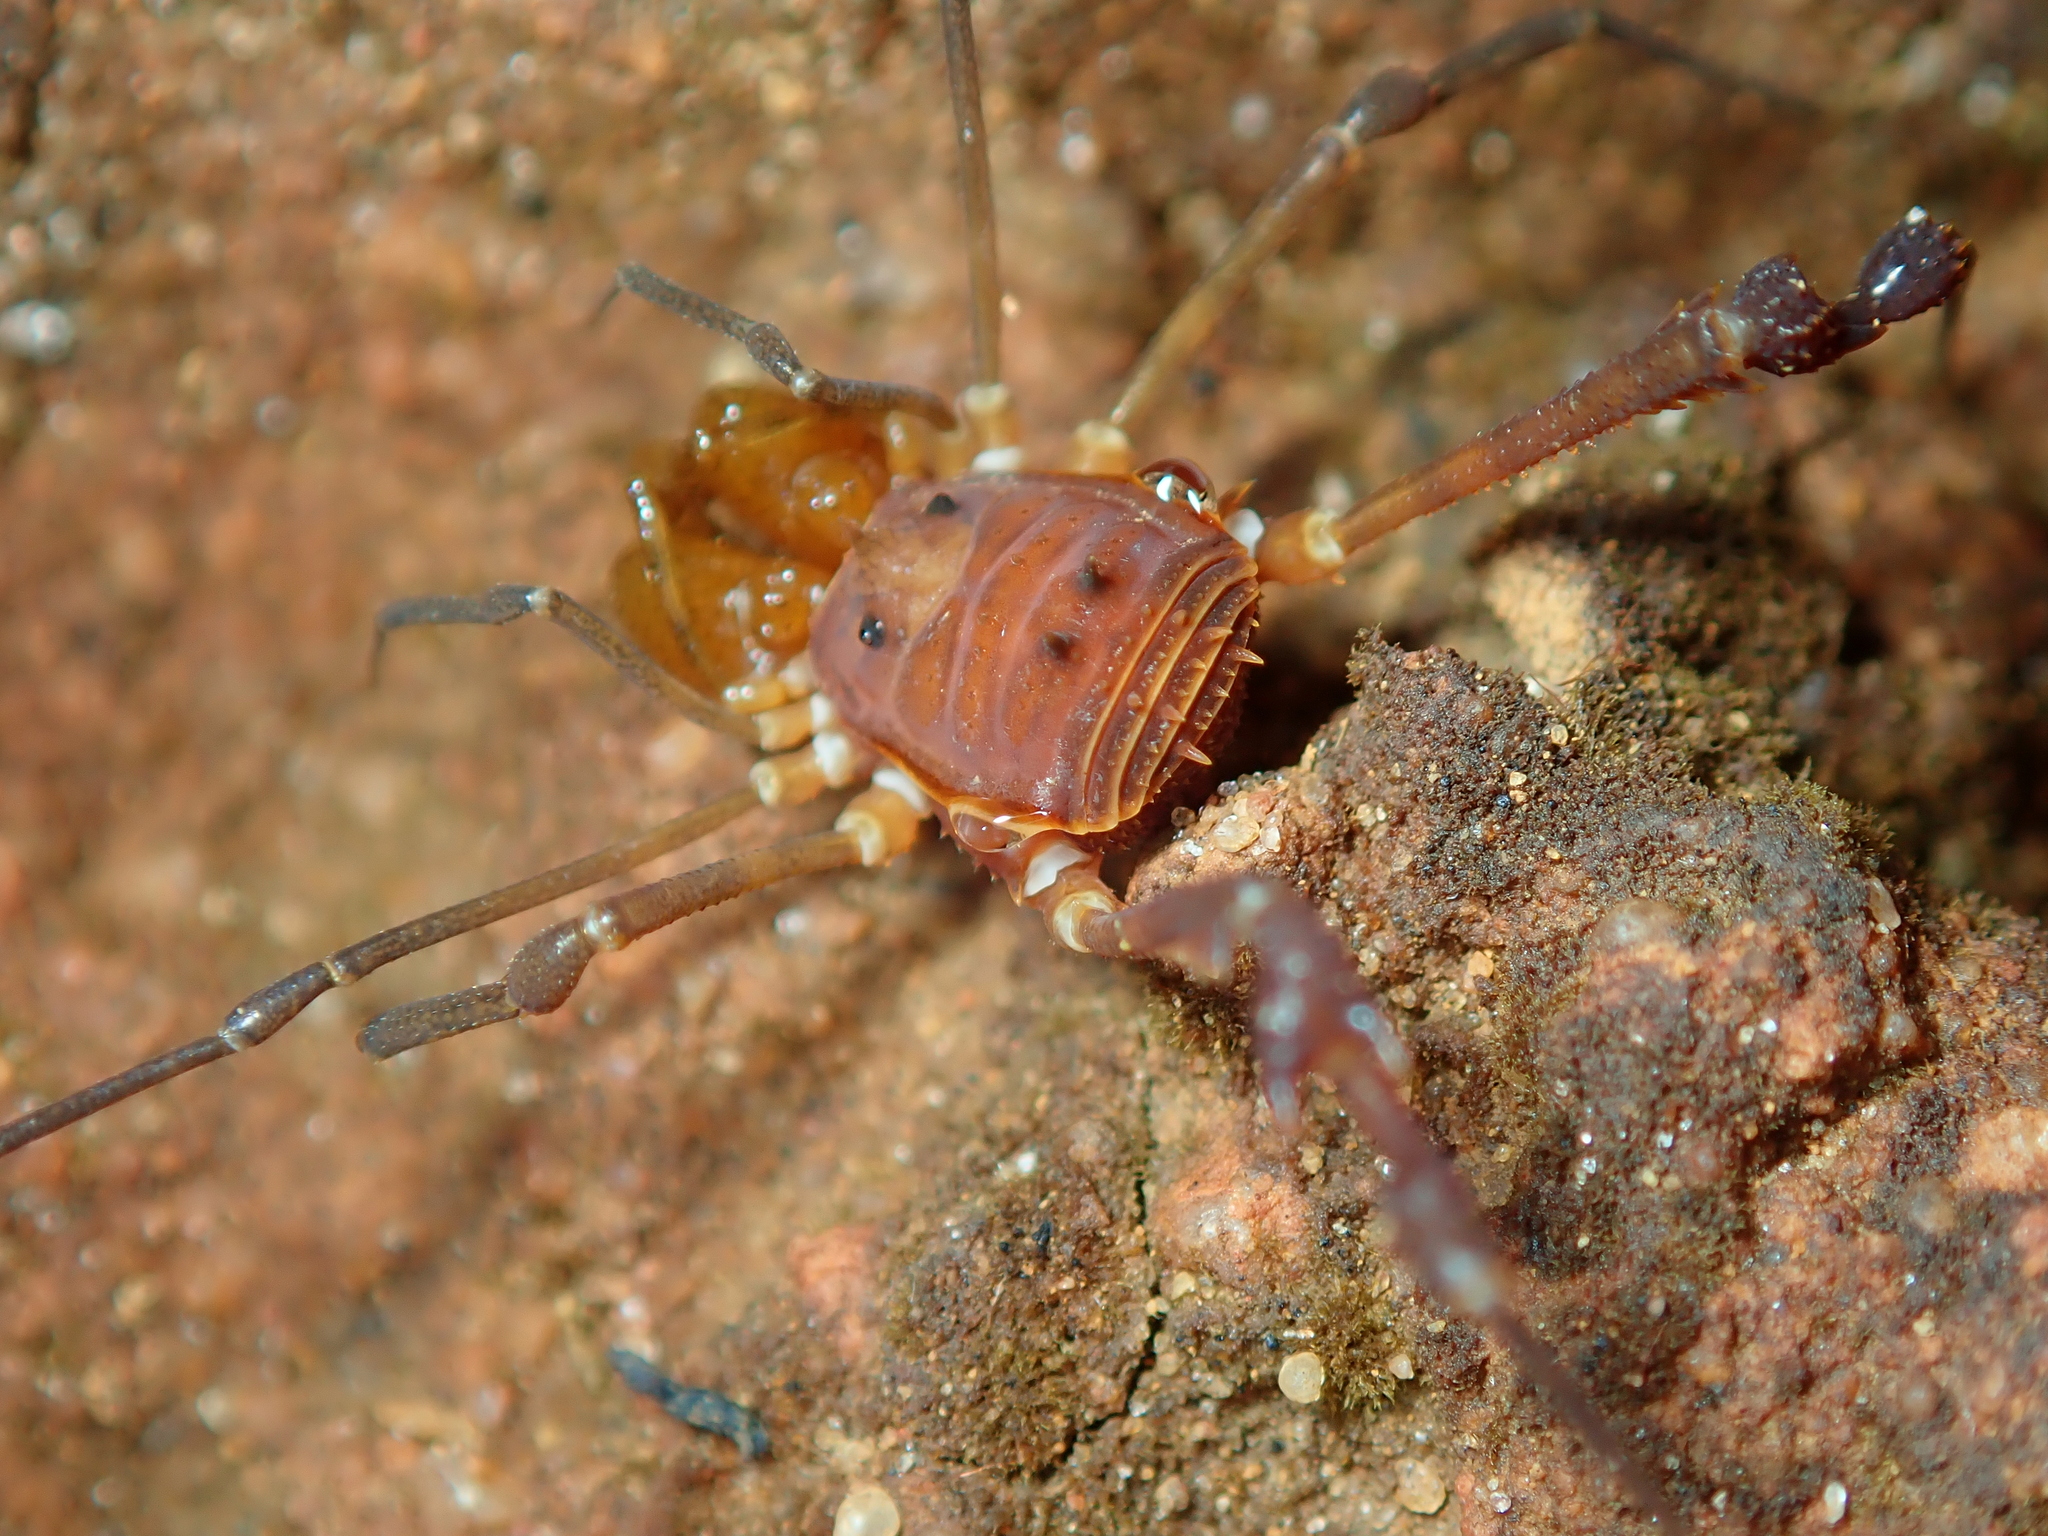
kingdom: Animalia
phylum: Arthropoda
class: Arachnida
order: Opiliones
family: Stygnidae
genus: Stygnus
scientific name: Stygnus luteus
